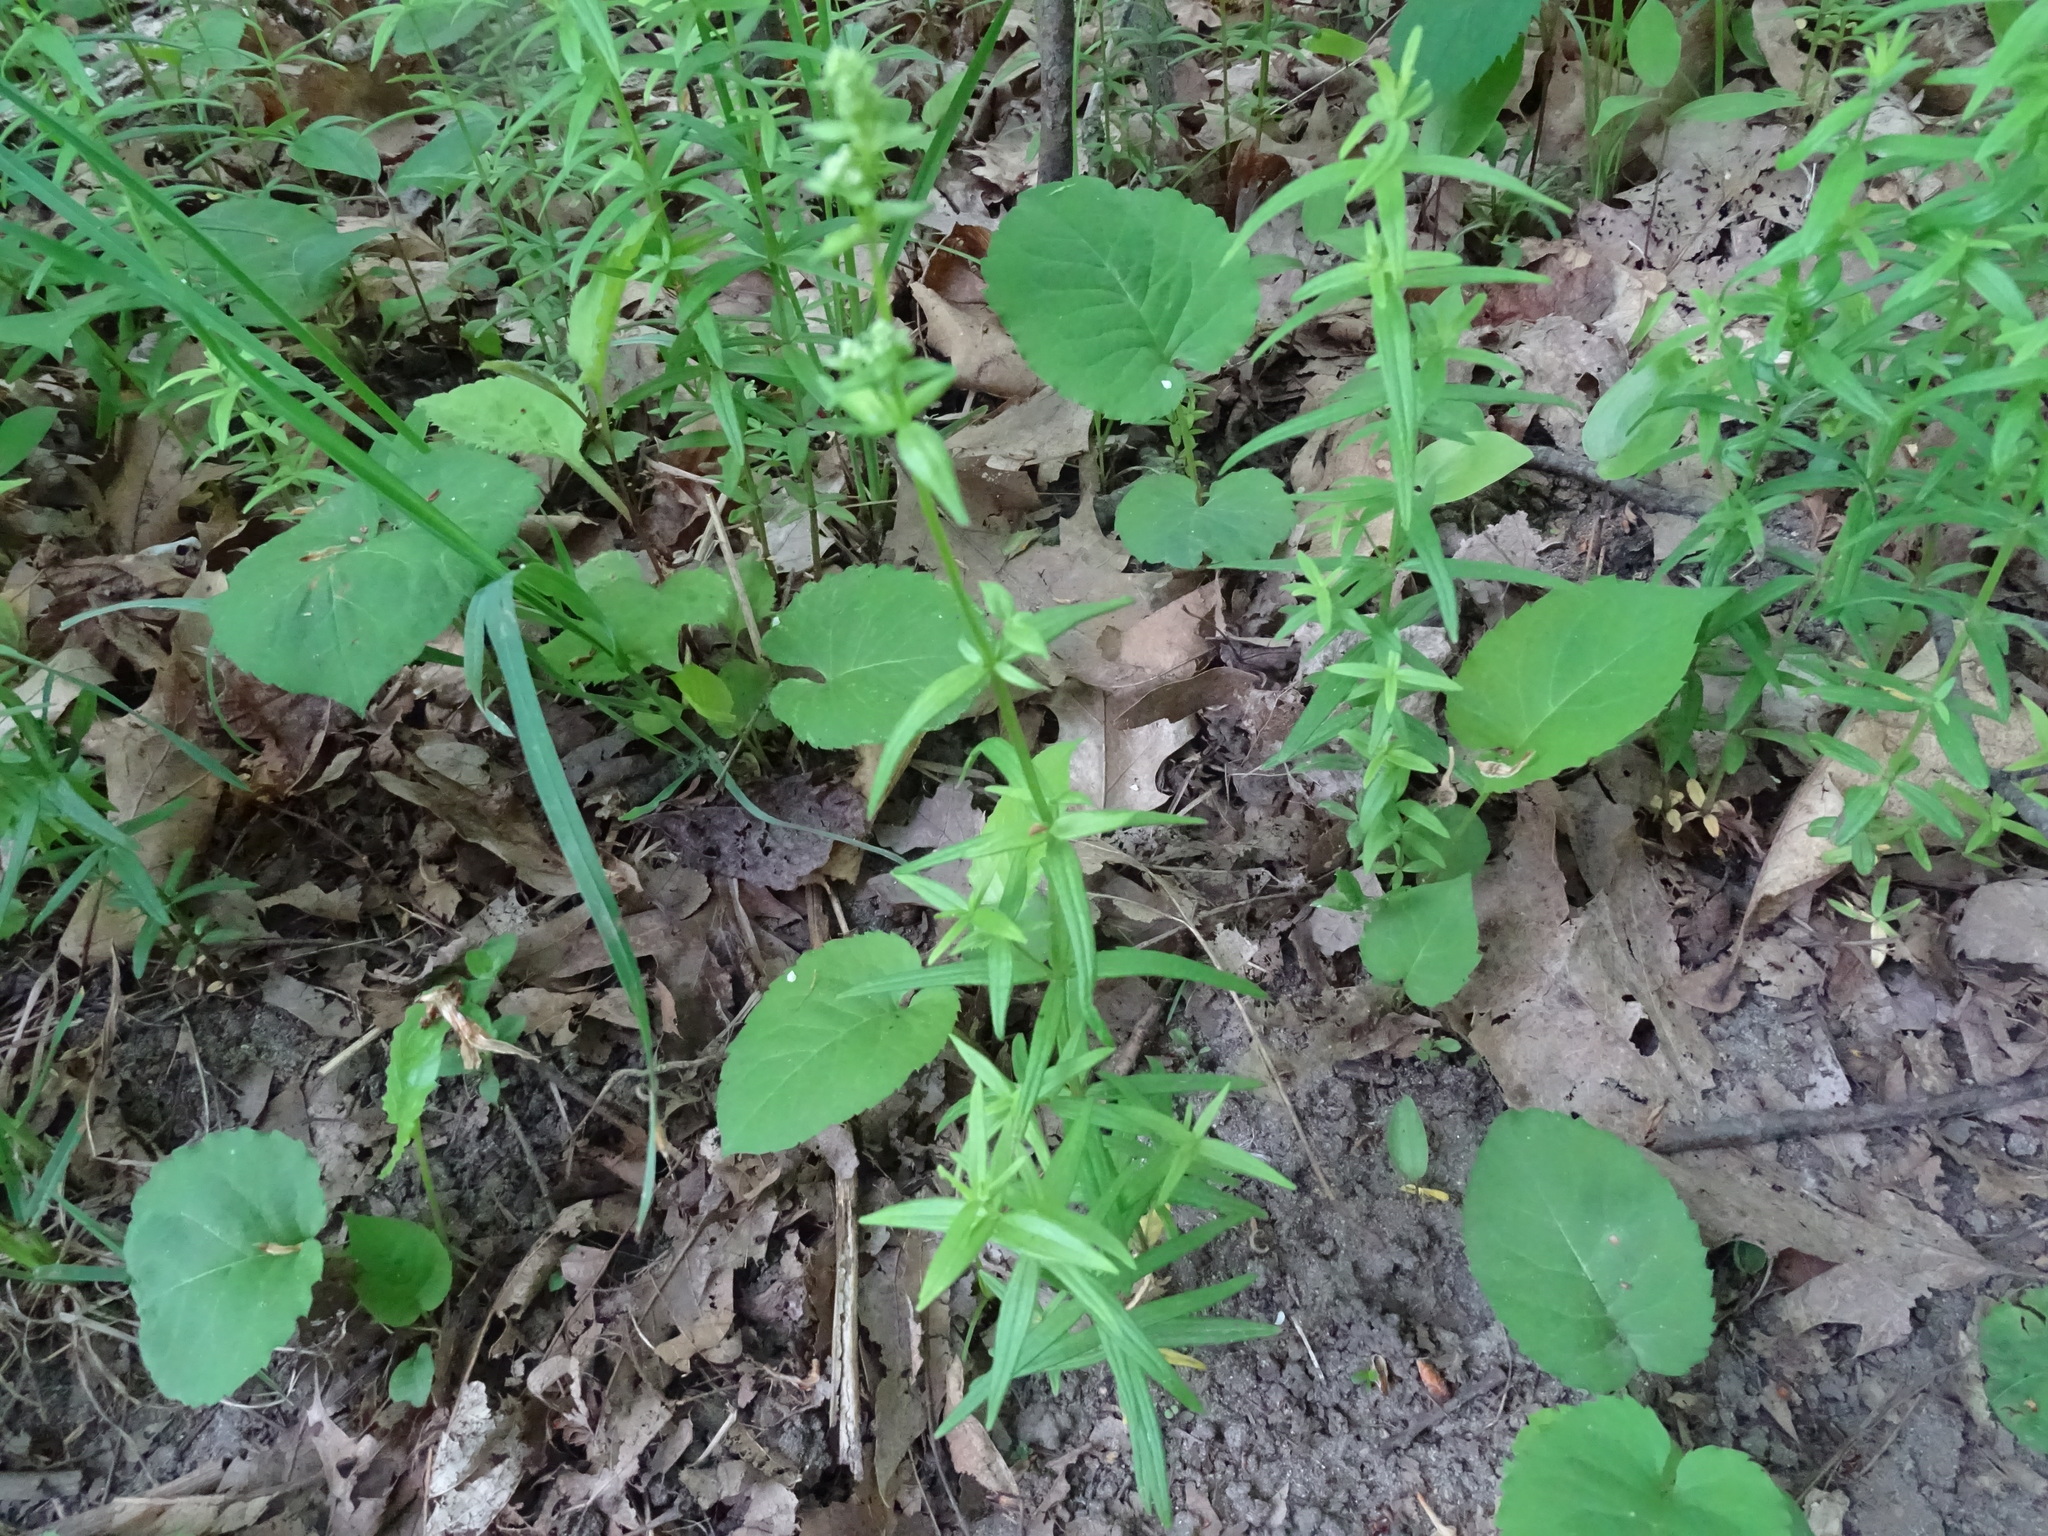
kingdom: Plantae
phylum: Tracheophyta
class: Magnoliopsida
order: Gentianales
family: Rubiaceae
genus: Galium
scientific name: Galium boreale
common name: Northern bedstraw
